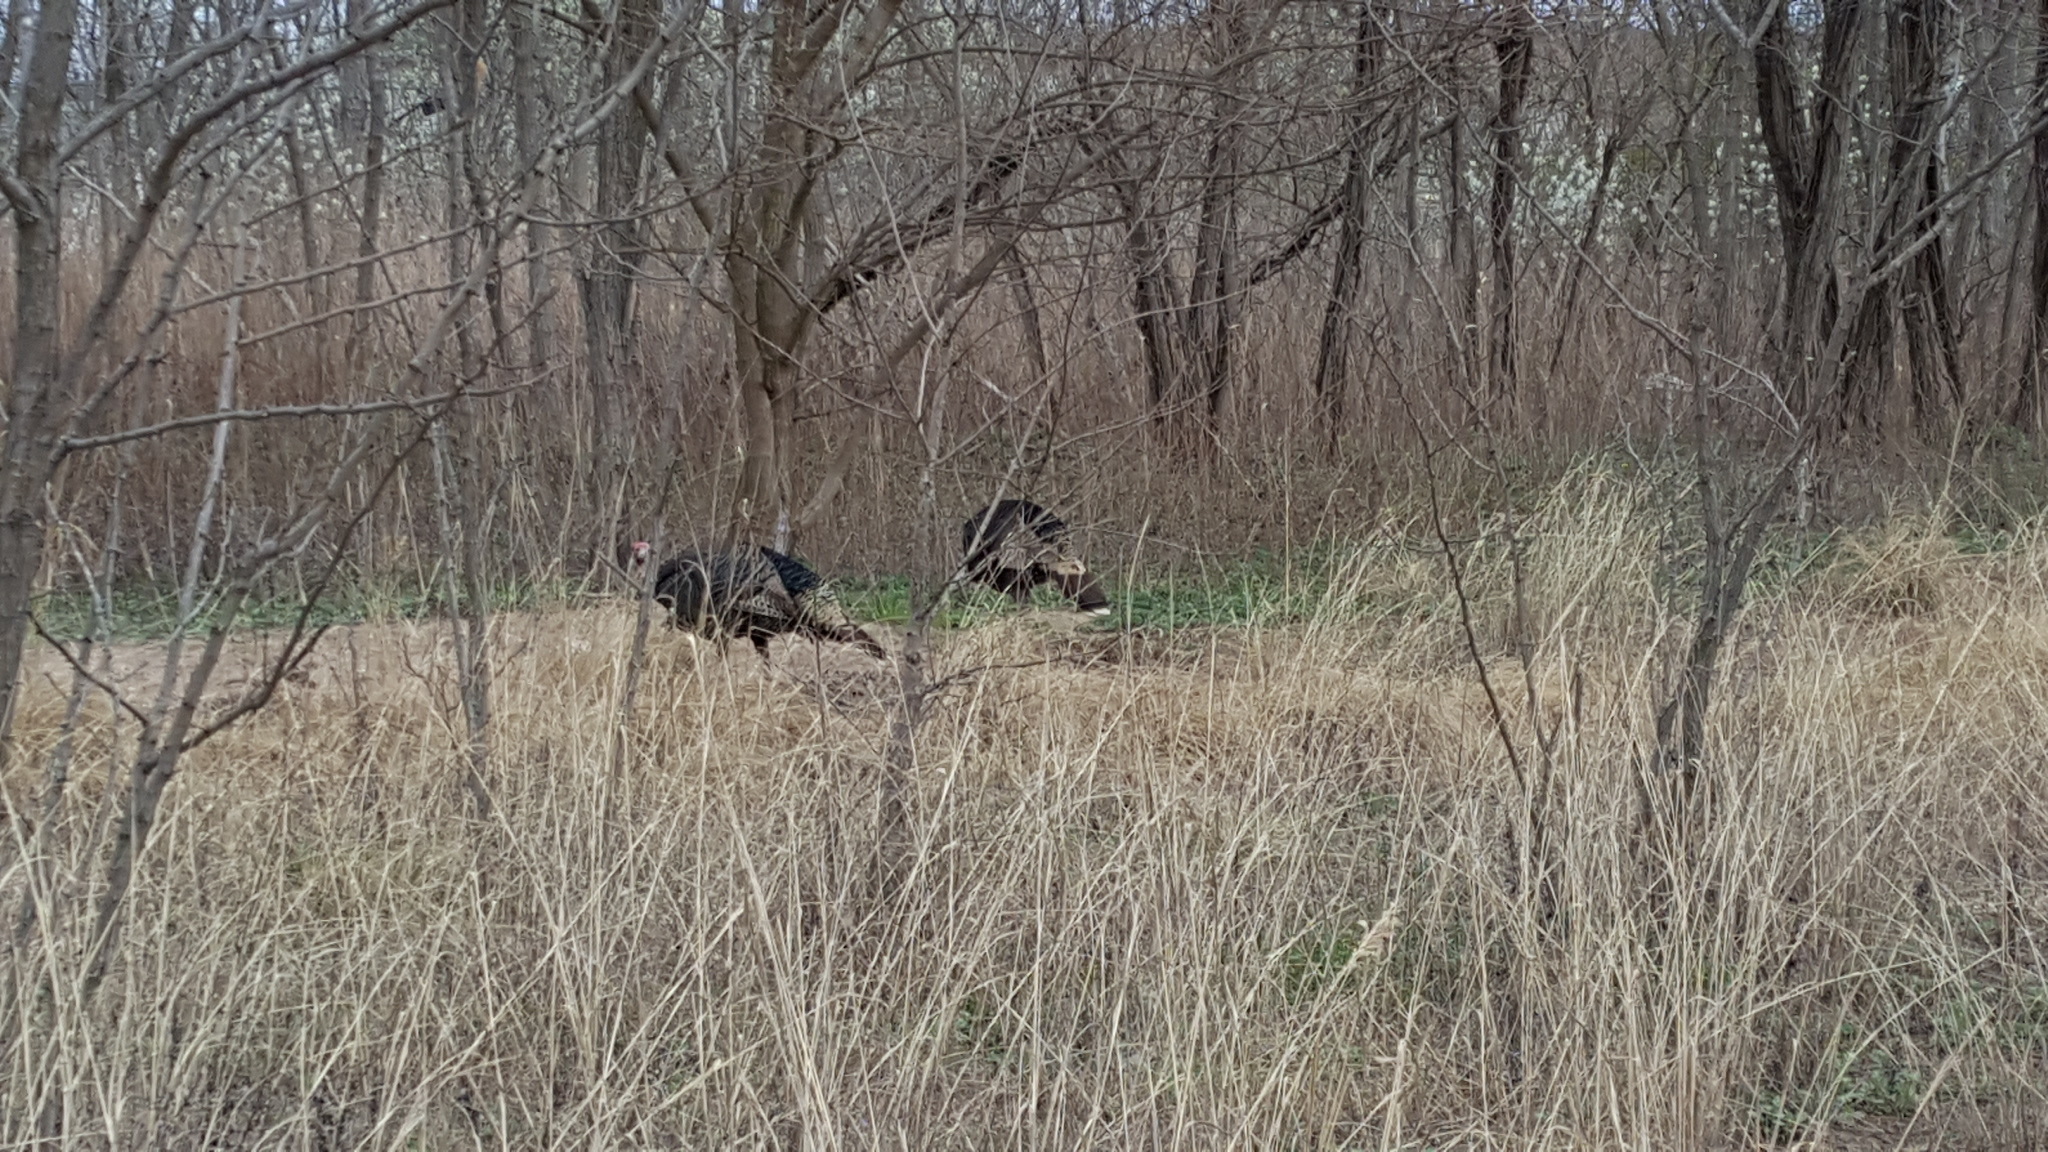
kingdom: Animalia
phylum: Chordata
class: Aves
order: Galliformes
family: Phasianidae
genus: Meleagris
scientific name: Meleagris gallopavo
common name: Wild turkey
